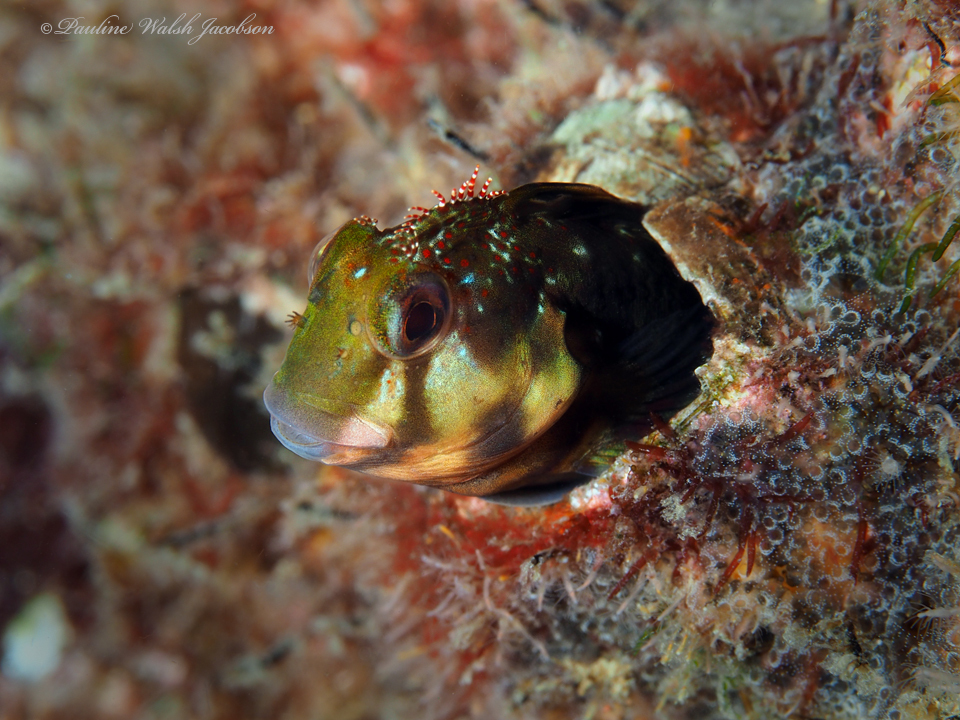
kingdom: Animalia
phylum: Chordata
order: Perciformes
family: Blenniidae
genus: Scartella
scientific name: Scartella cristata
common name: Molly miller
